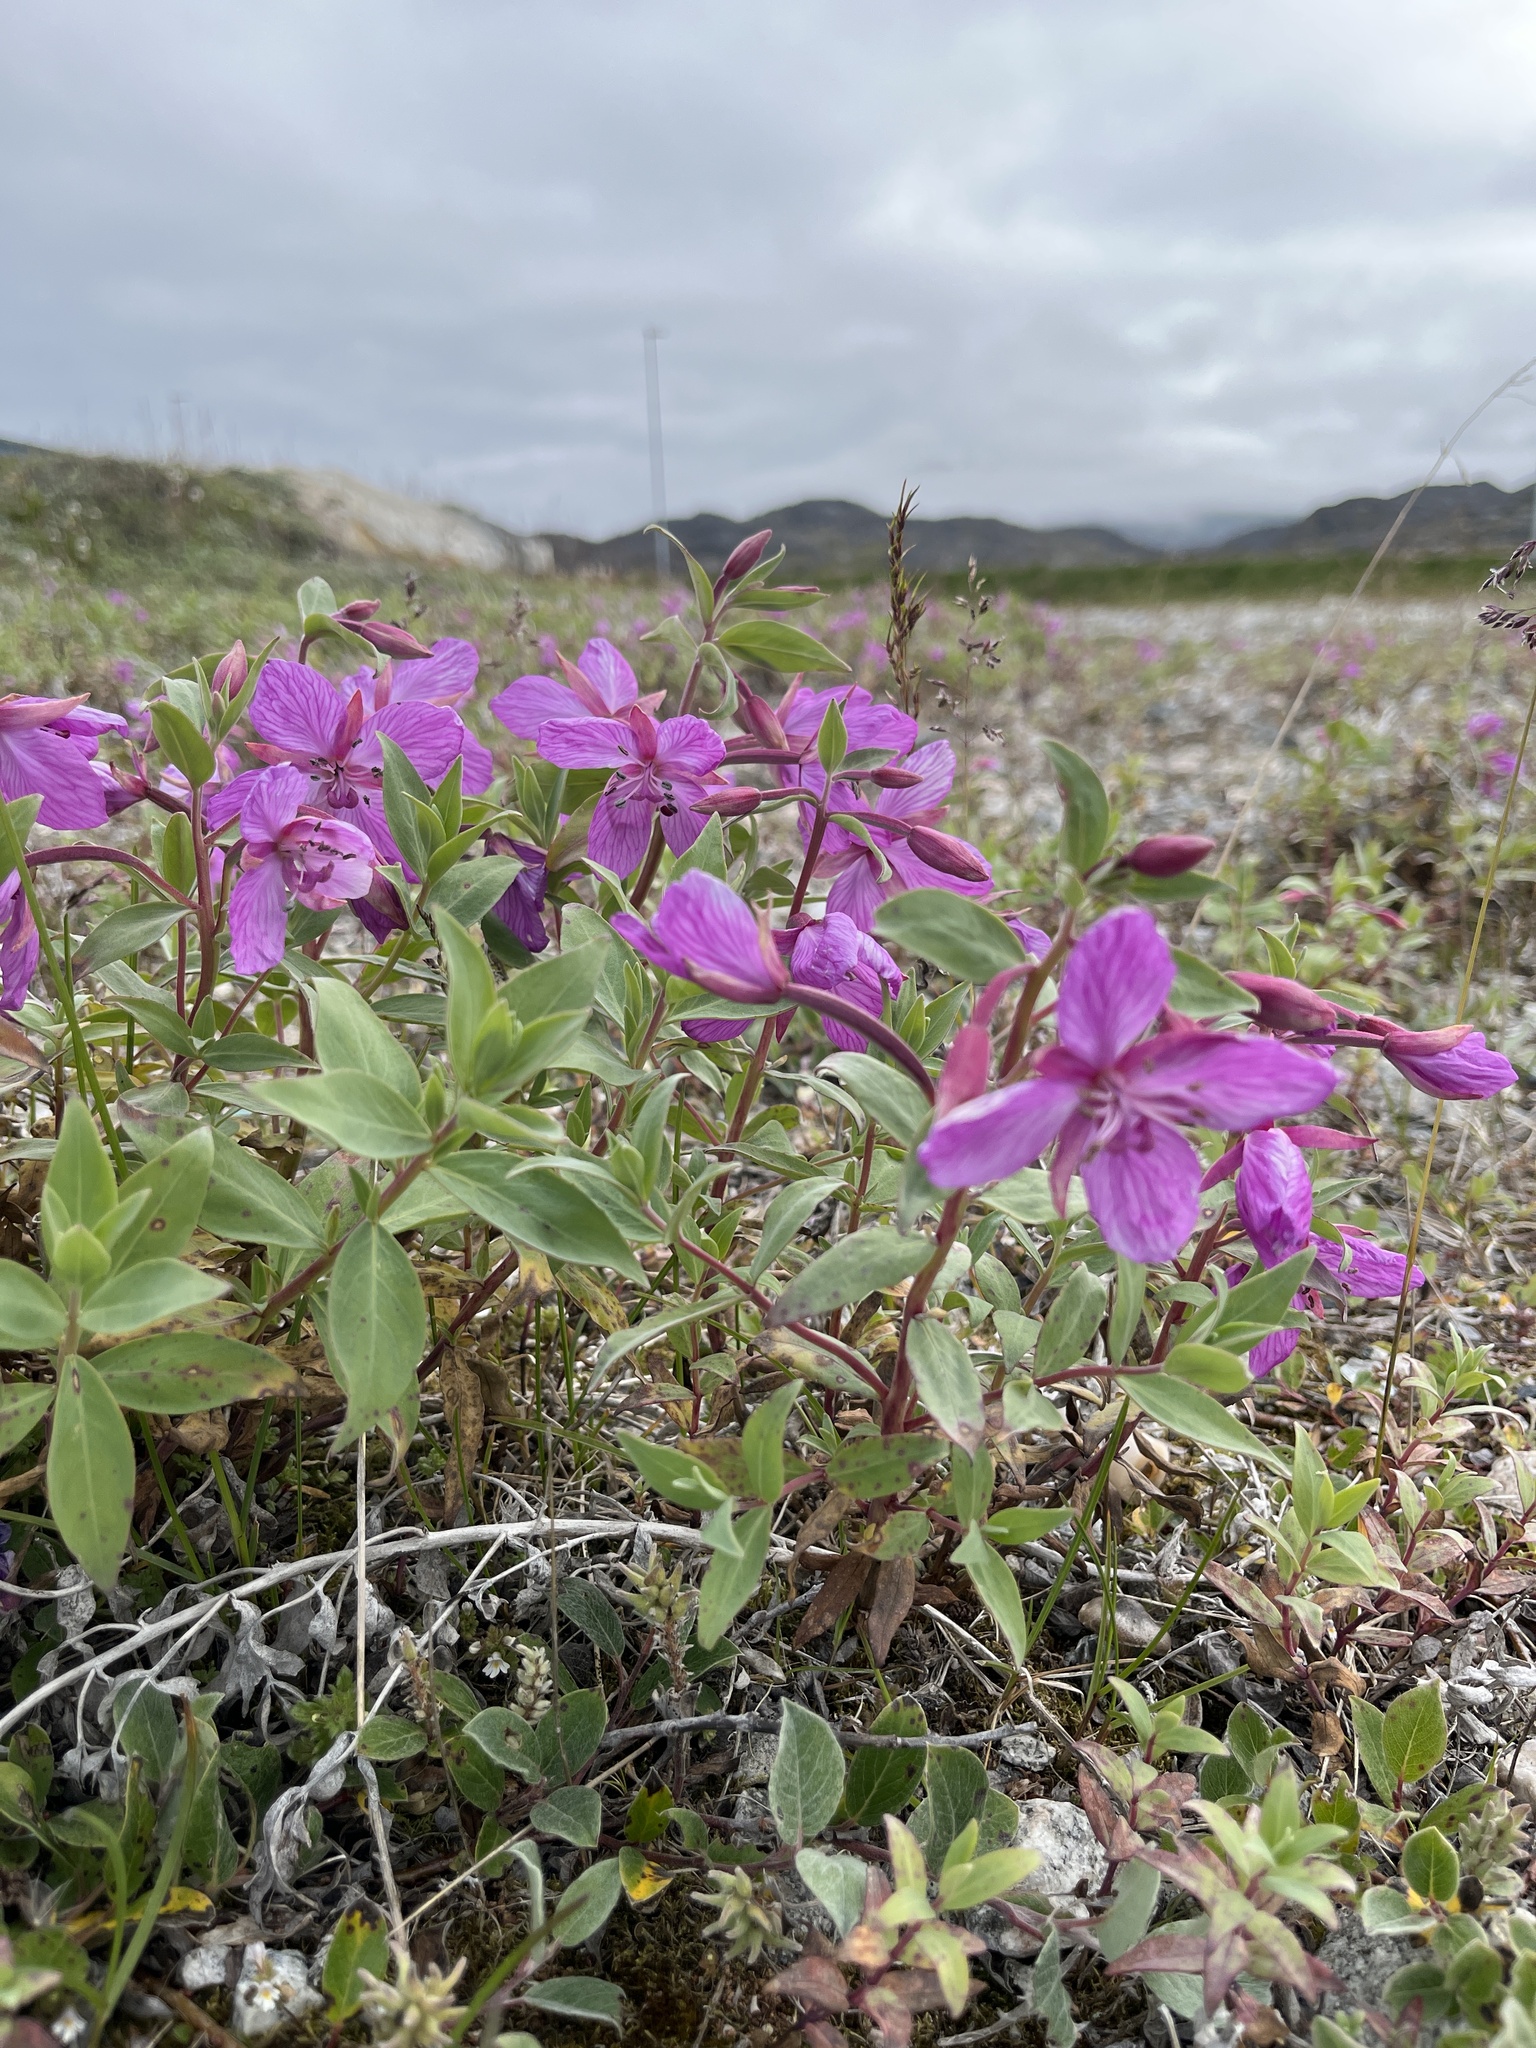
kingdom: Plantae
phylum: Tracheophyta
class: Magnoliopsida
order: Myrtales
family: Onagraceae
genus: Chamaenerion
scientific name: Chamaenerion latifolium
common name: Dwarf fireweed
